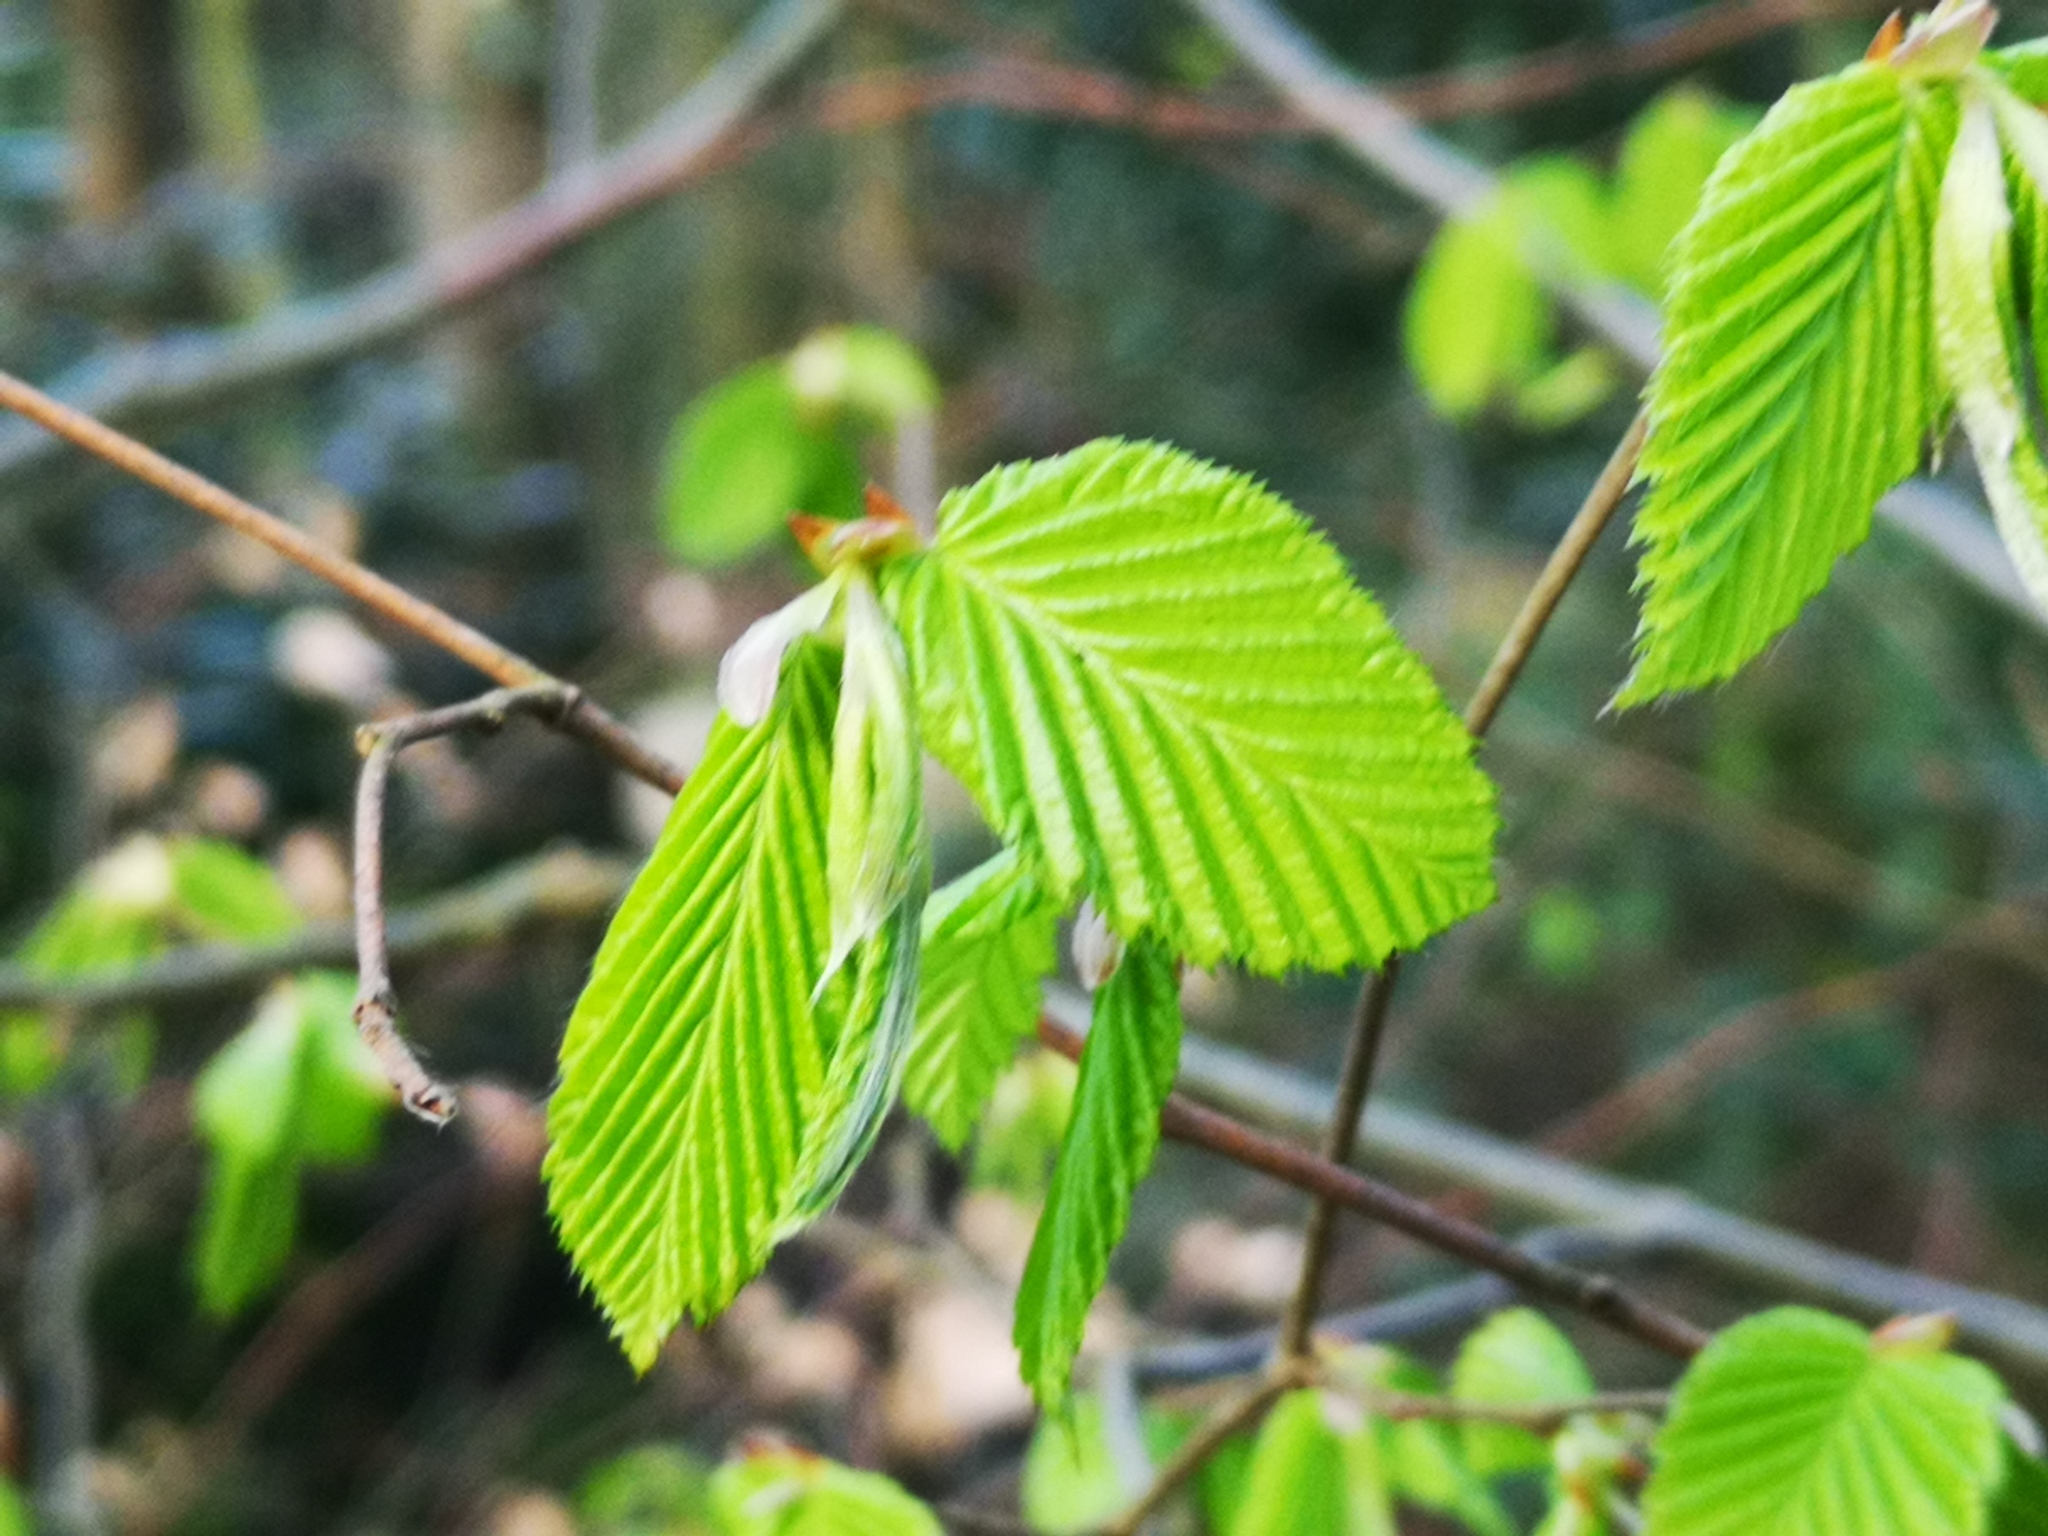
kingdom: Plantae
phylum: Tracheophyta
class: Magnoliopsida
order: Fagales
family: Betulaceae
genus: Carpinus
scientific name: Carpinus betulus
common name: Hornbeam
